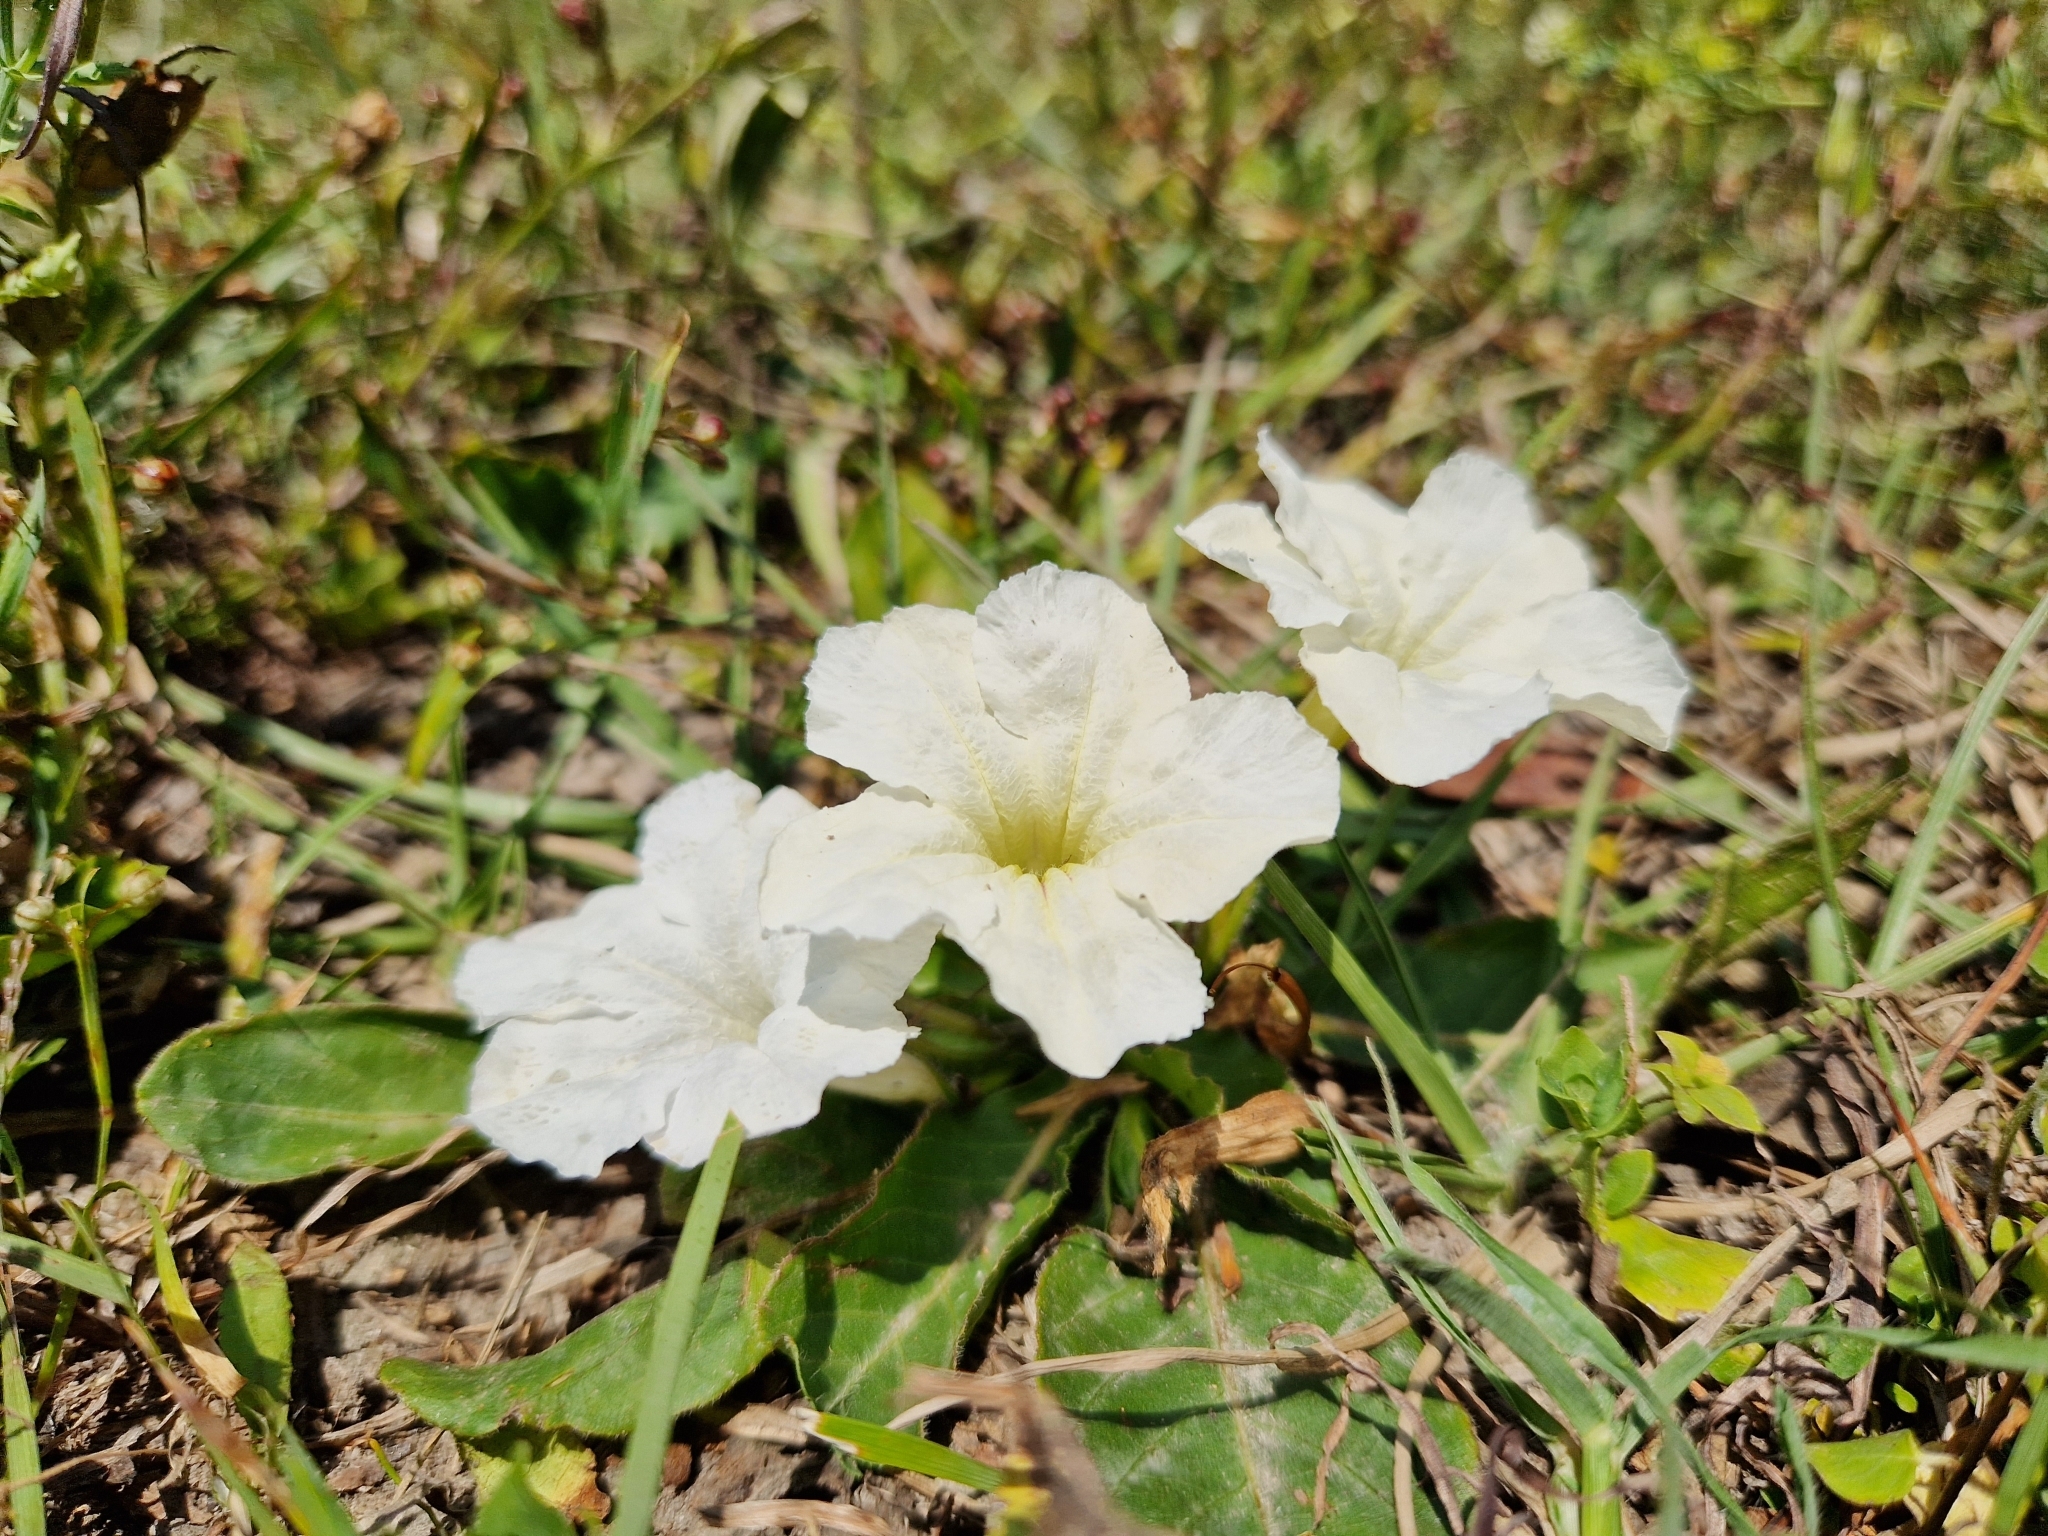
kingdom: Plantae
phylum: Tracheophyta
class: Magnoliopsida
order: Lamiales
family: Acanthaceae
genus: Ruellia
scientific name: Ruellia morongii
